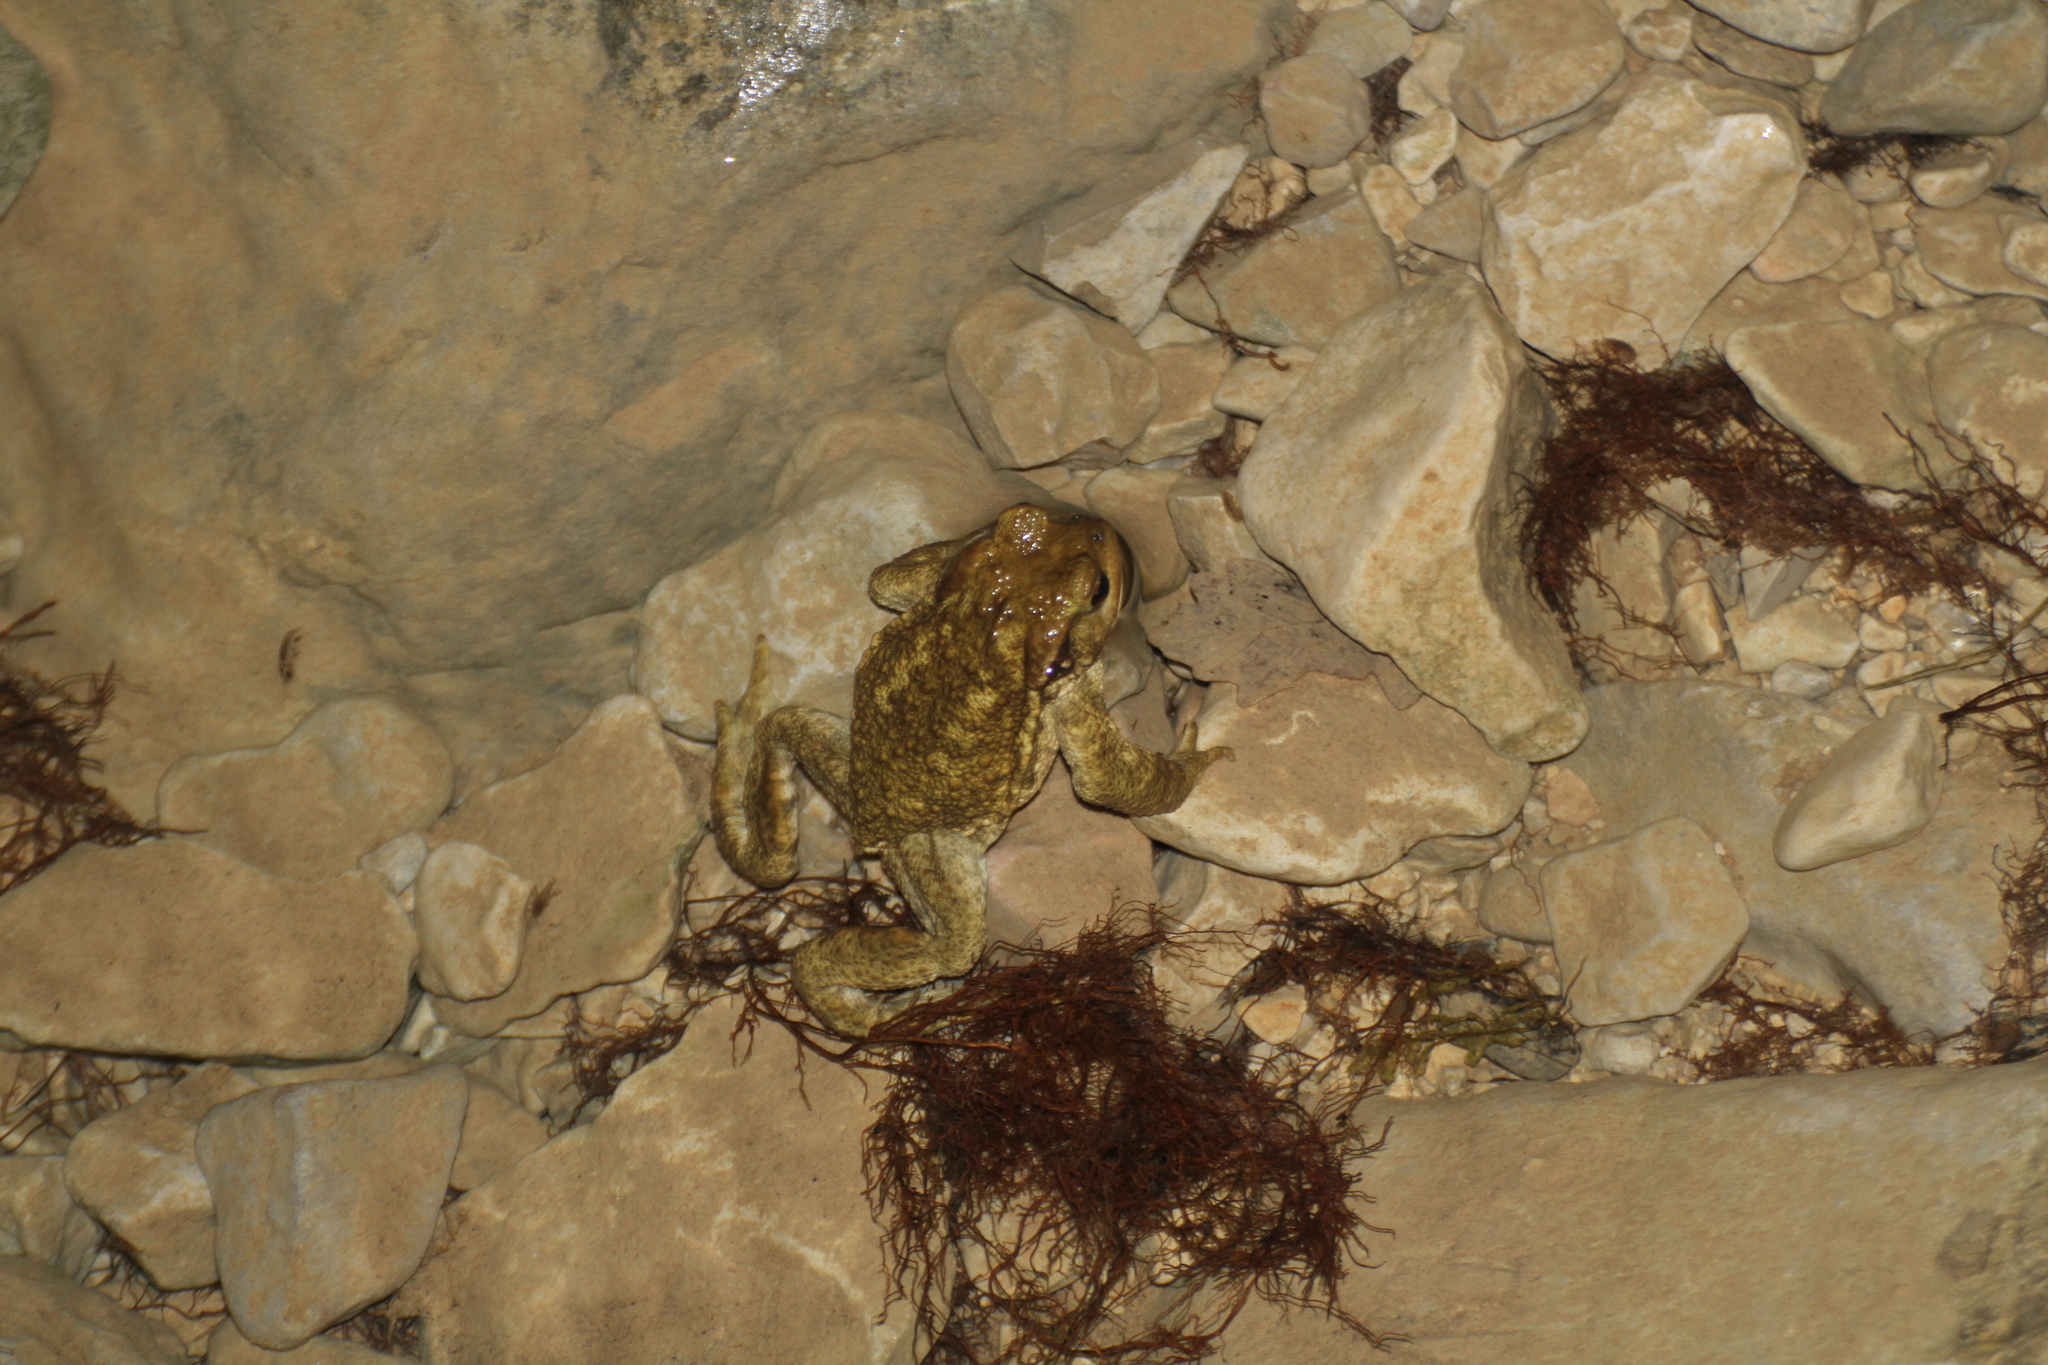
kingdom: Animalia
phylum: Chordata
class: Amphibia
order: Anura
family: Bufonidae
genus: Bufo
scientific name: Bufo spinosus
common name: Western common toad
